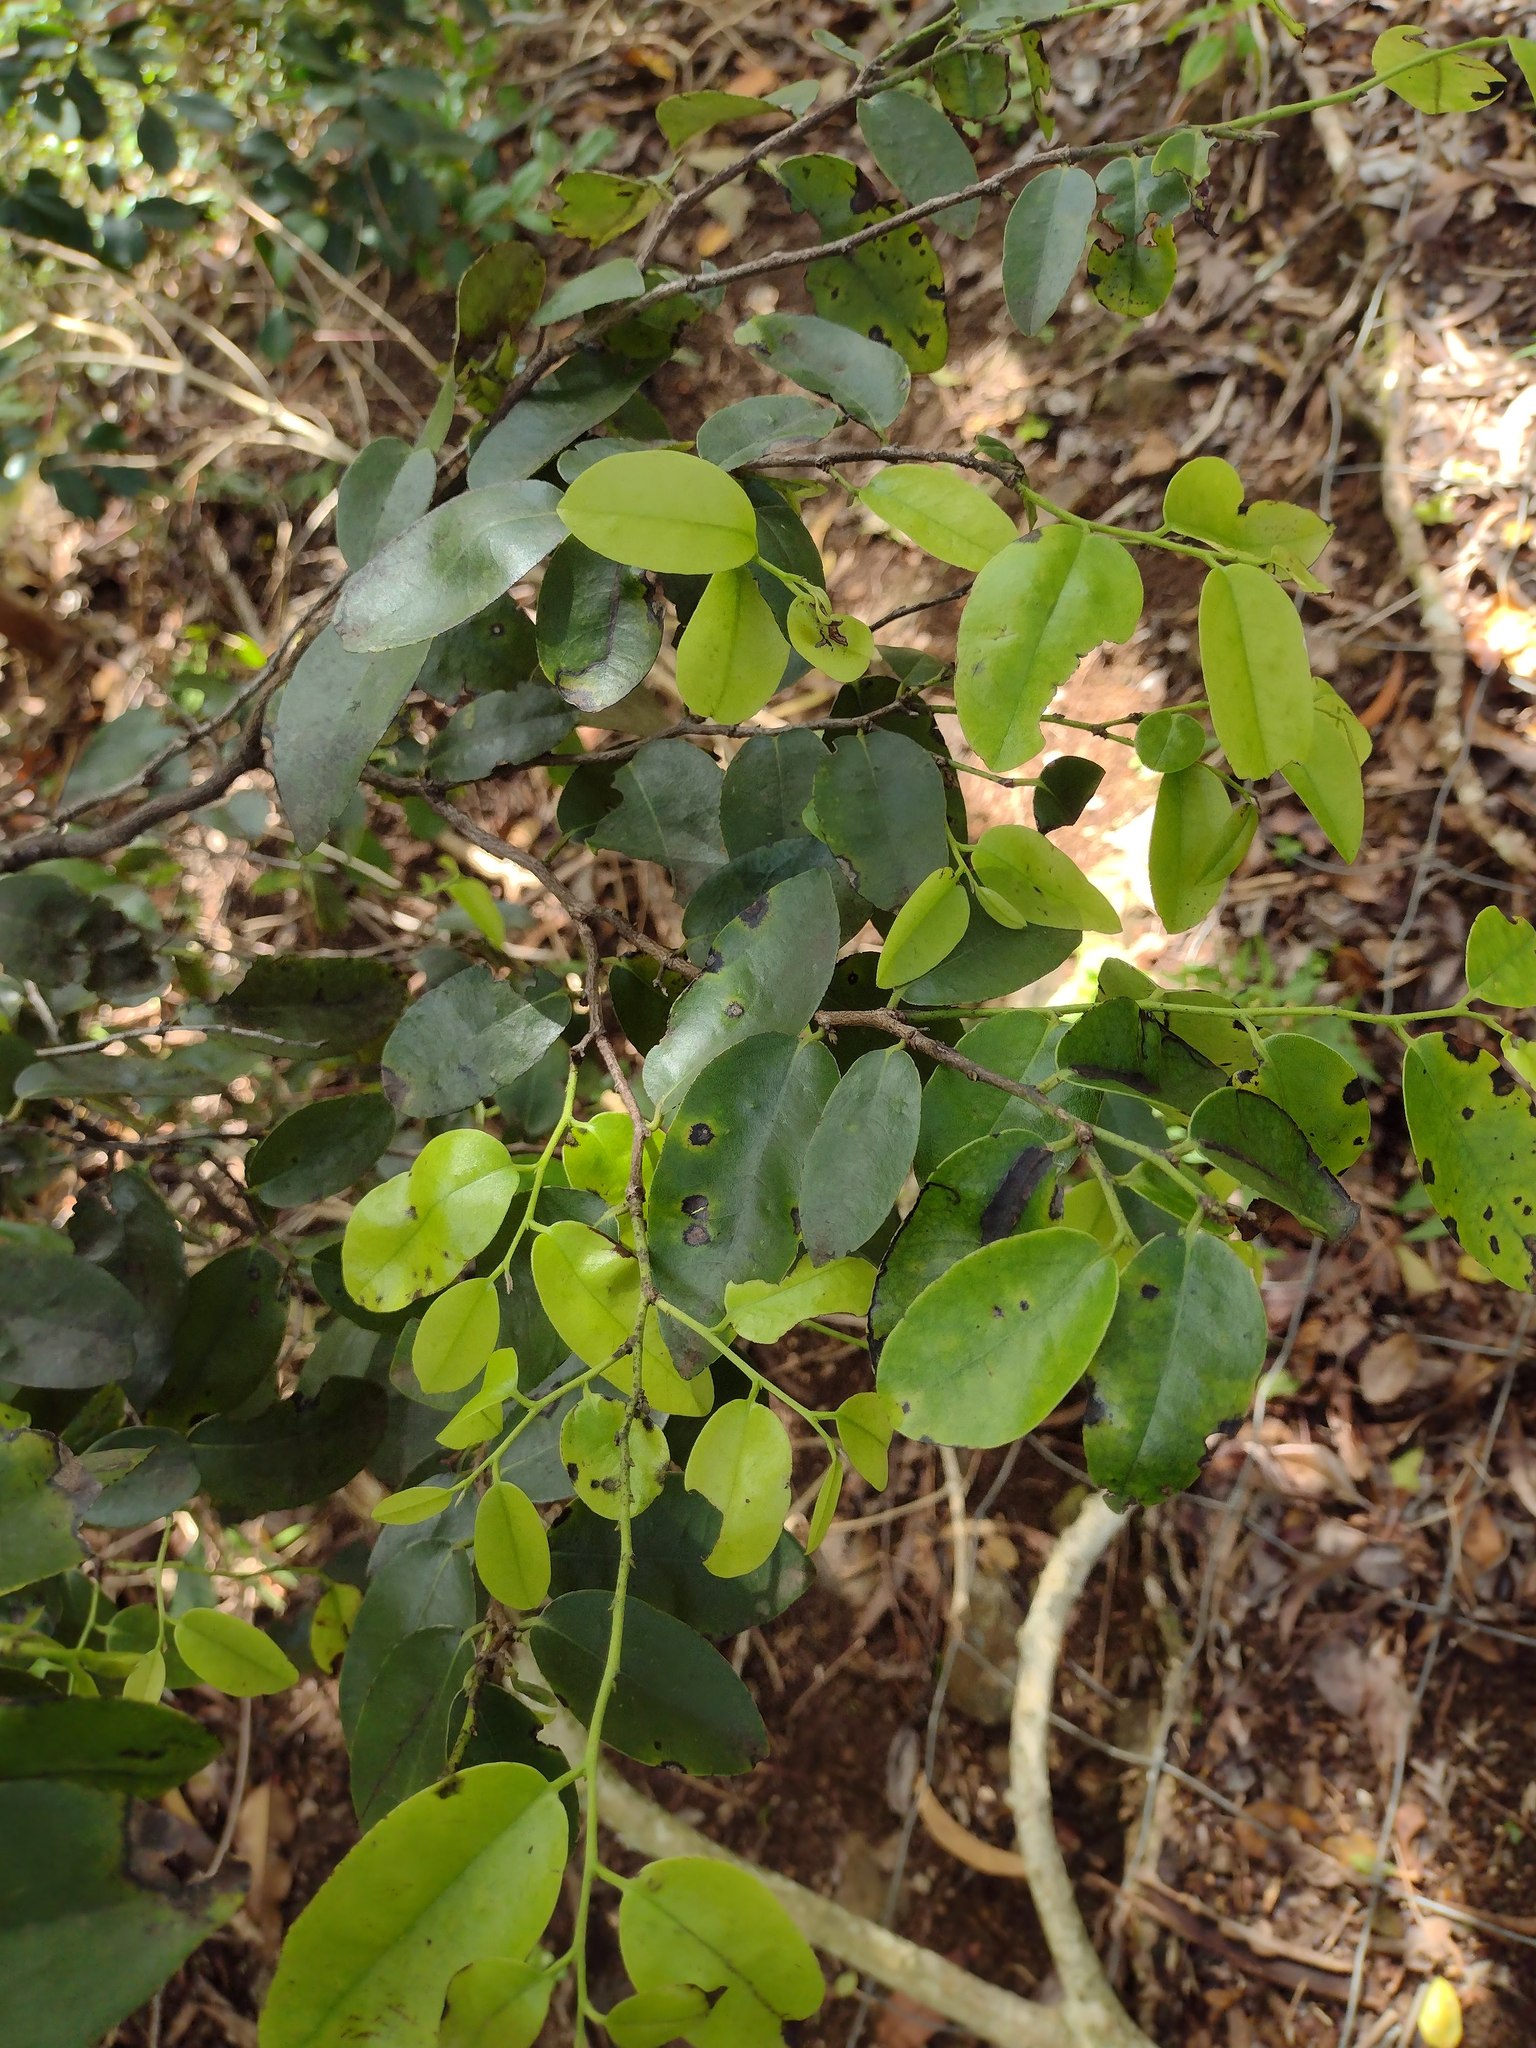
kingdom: Plantae
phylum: Tracheophyta
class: Magnoliopsida
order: Ericales
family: Ebenaceae
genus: Diospyros
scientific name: Diospyros sandwicensis
